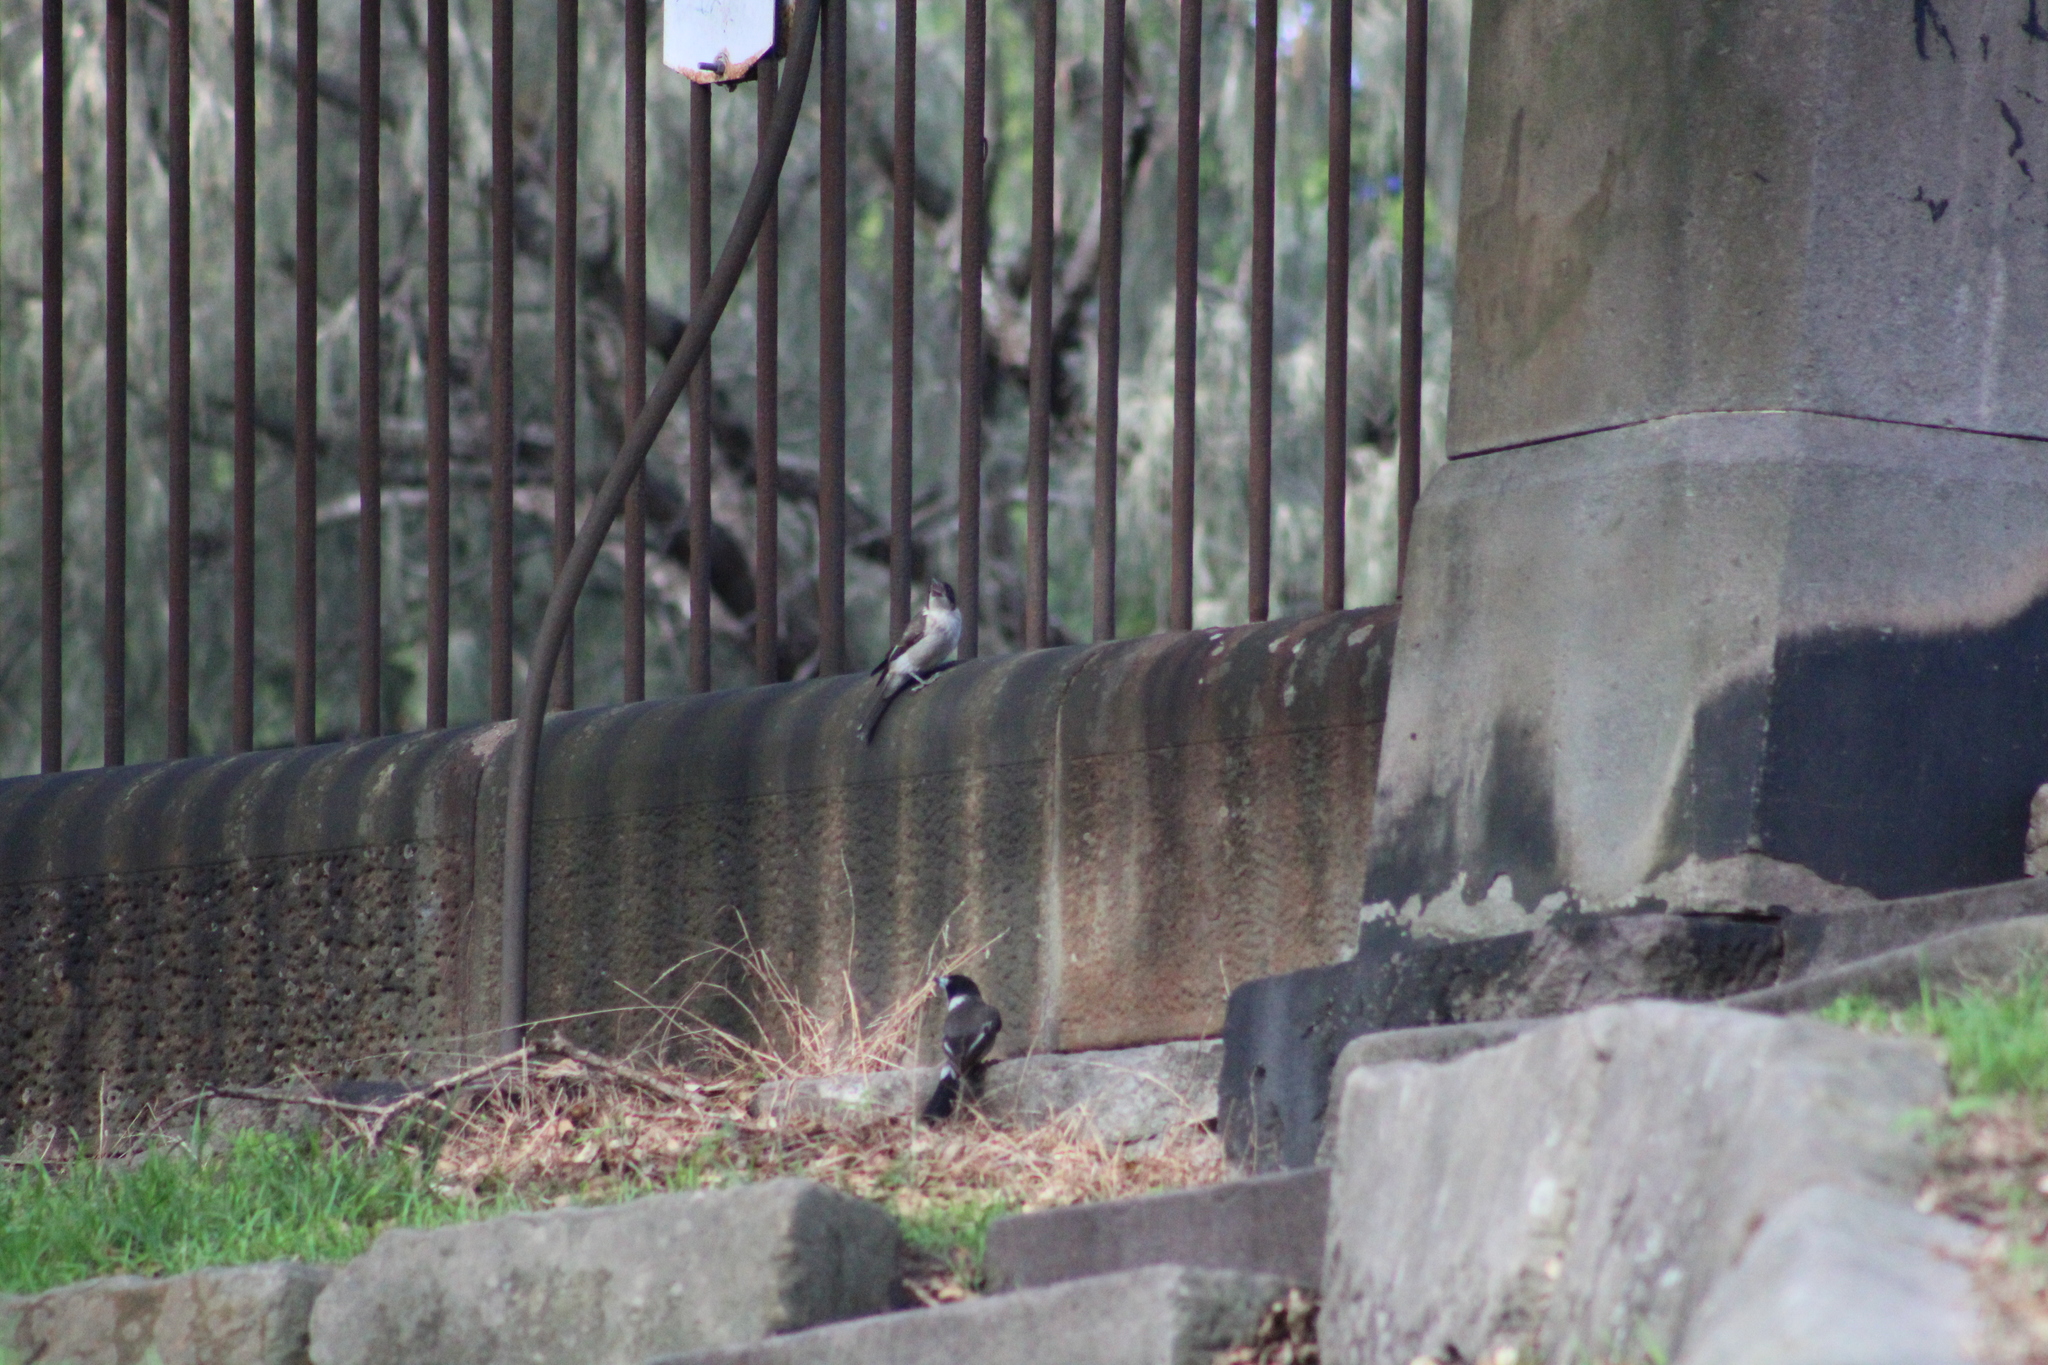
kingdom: Animalia
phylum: Chordata
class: Aves
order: Passeriformes
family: Cracticidae
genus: Cracticus
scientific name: Cracticus torquatus
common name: Grey butcherbird
